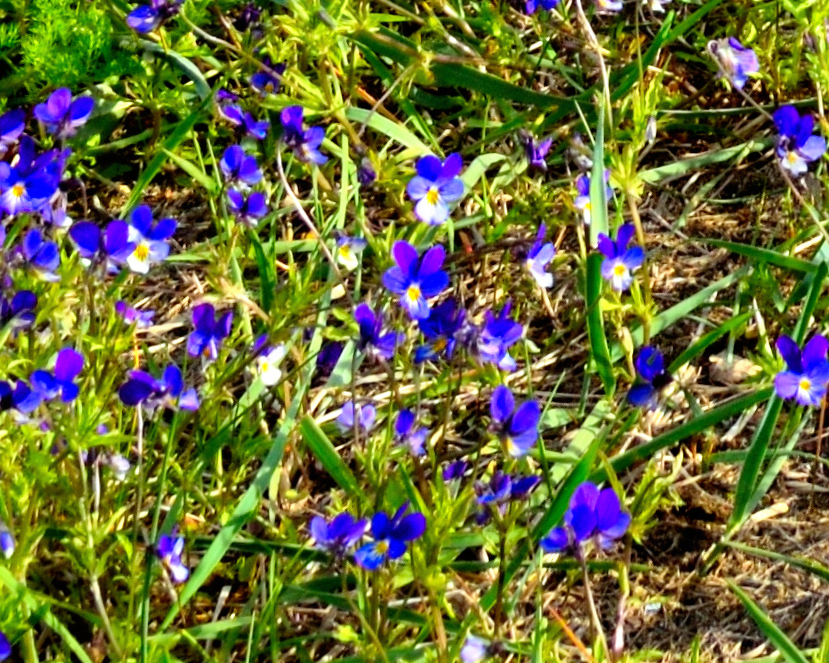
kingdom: Plantae
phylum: Tracheophyta
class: Magnoliopsida
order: Malpighiales
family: Violaceae
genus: Viola
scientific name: Viola tricolor
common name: Pansy
